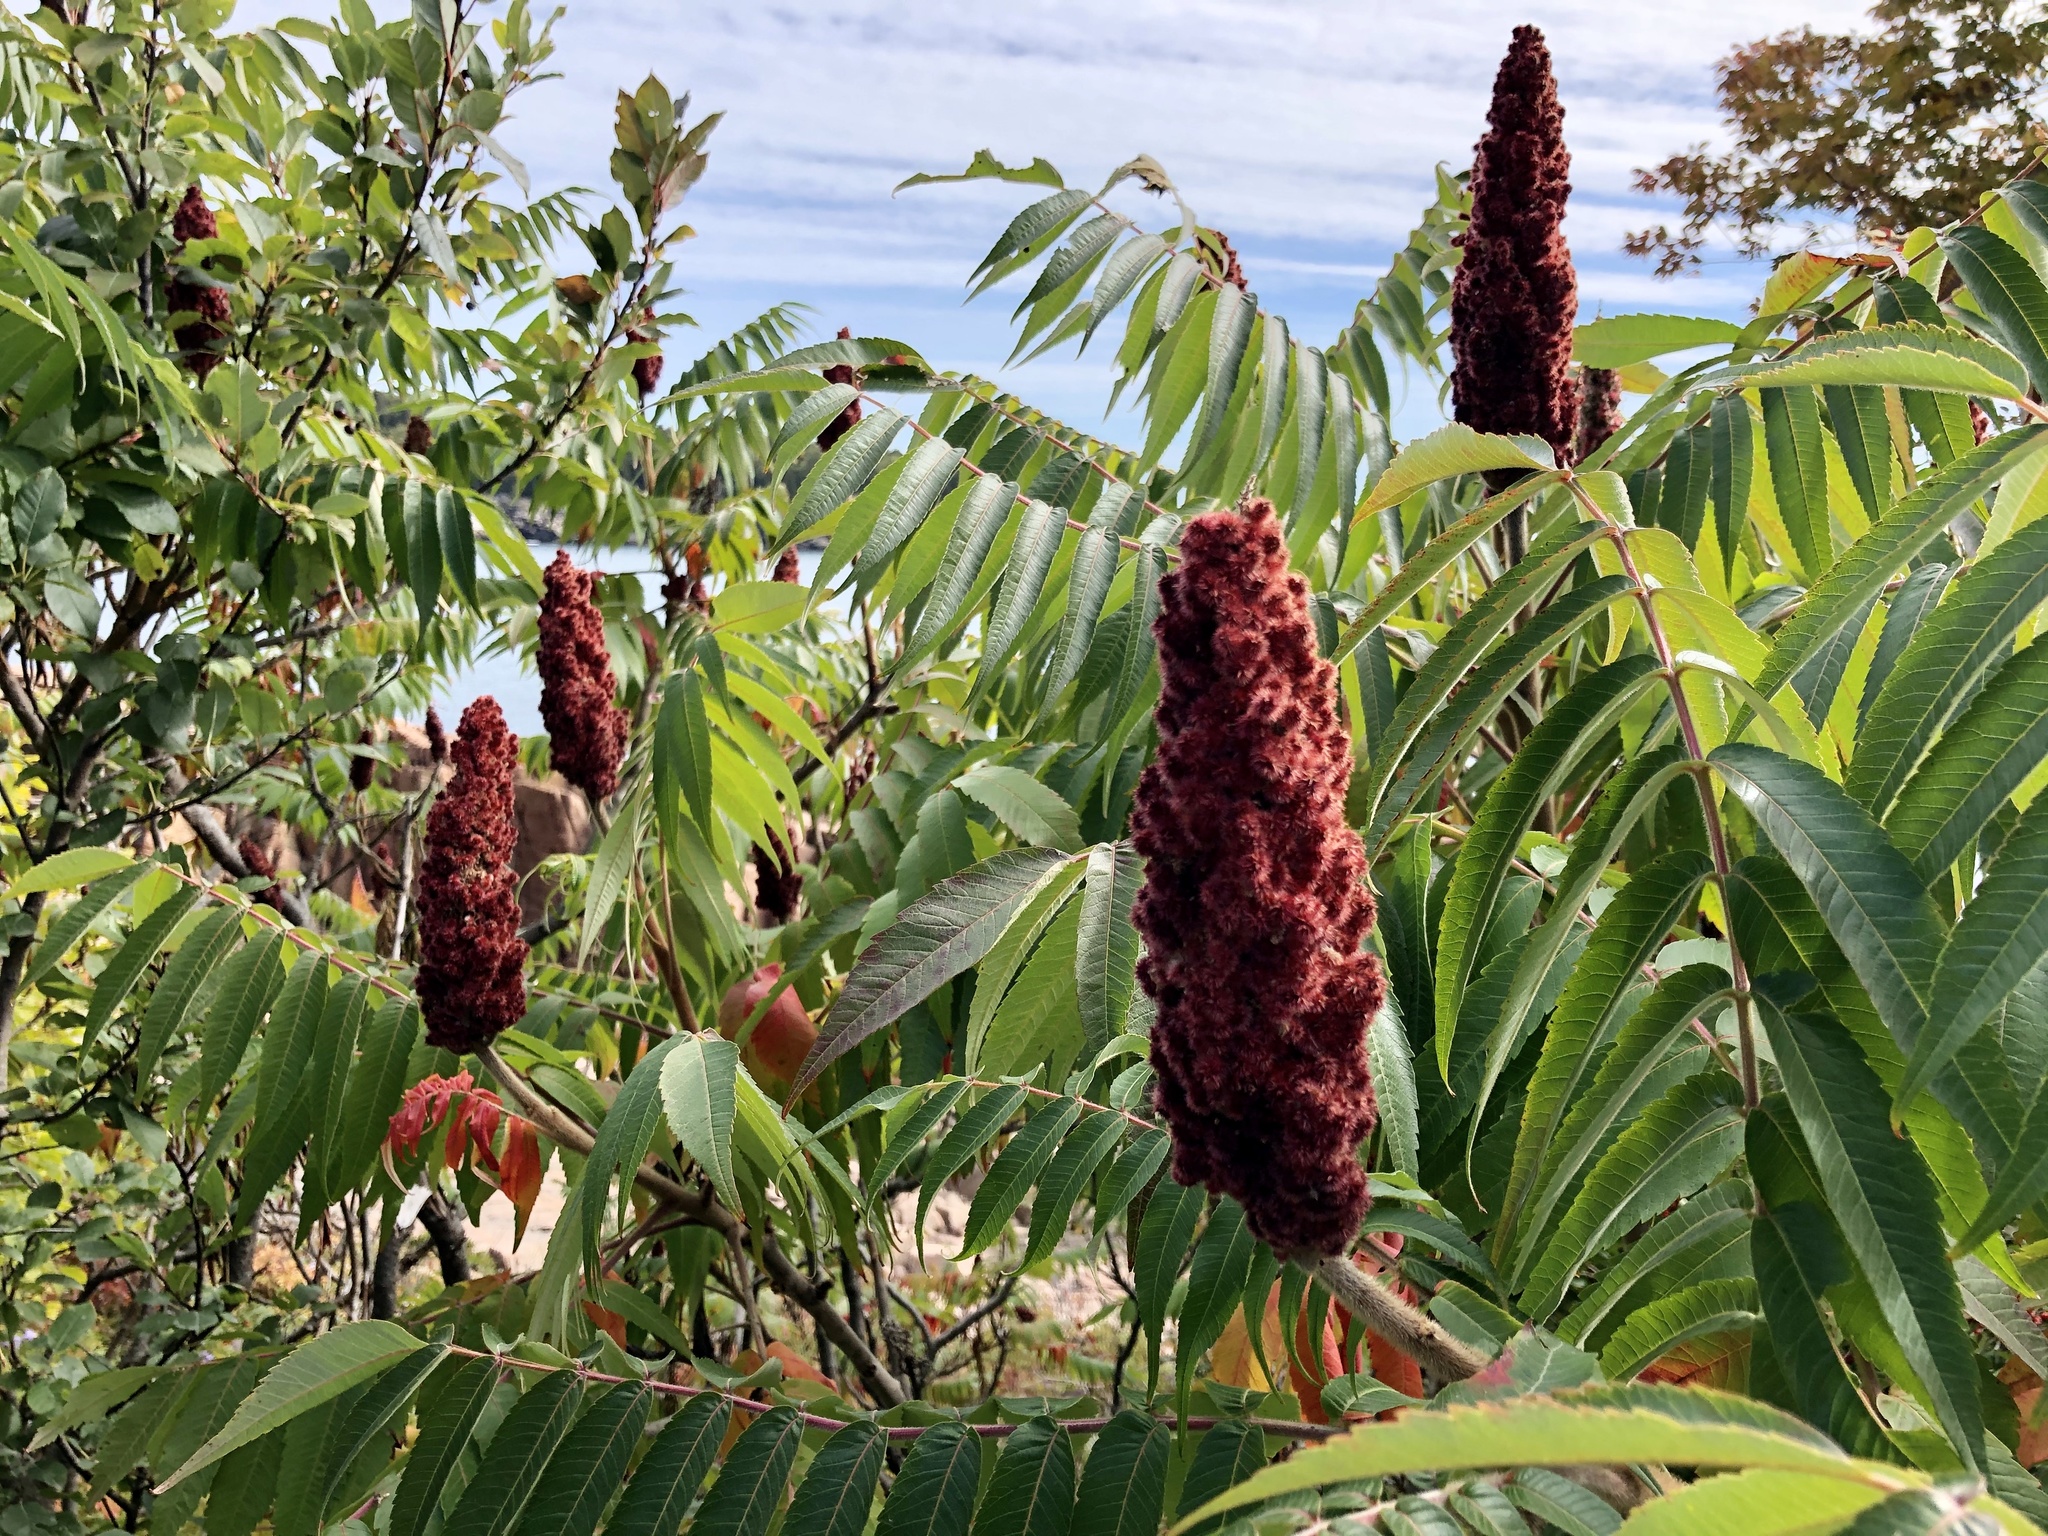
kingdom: Plantae
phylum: Tracheophyta
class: Magnoliopsida
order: Sapindales
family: Anacardiaceae
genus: Rhus
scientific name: Rhus typhina
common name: Staghorn sumac
